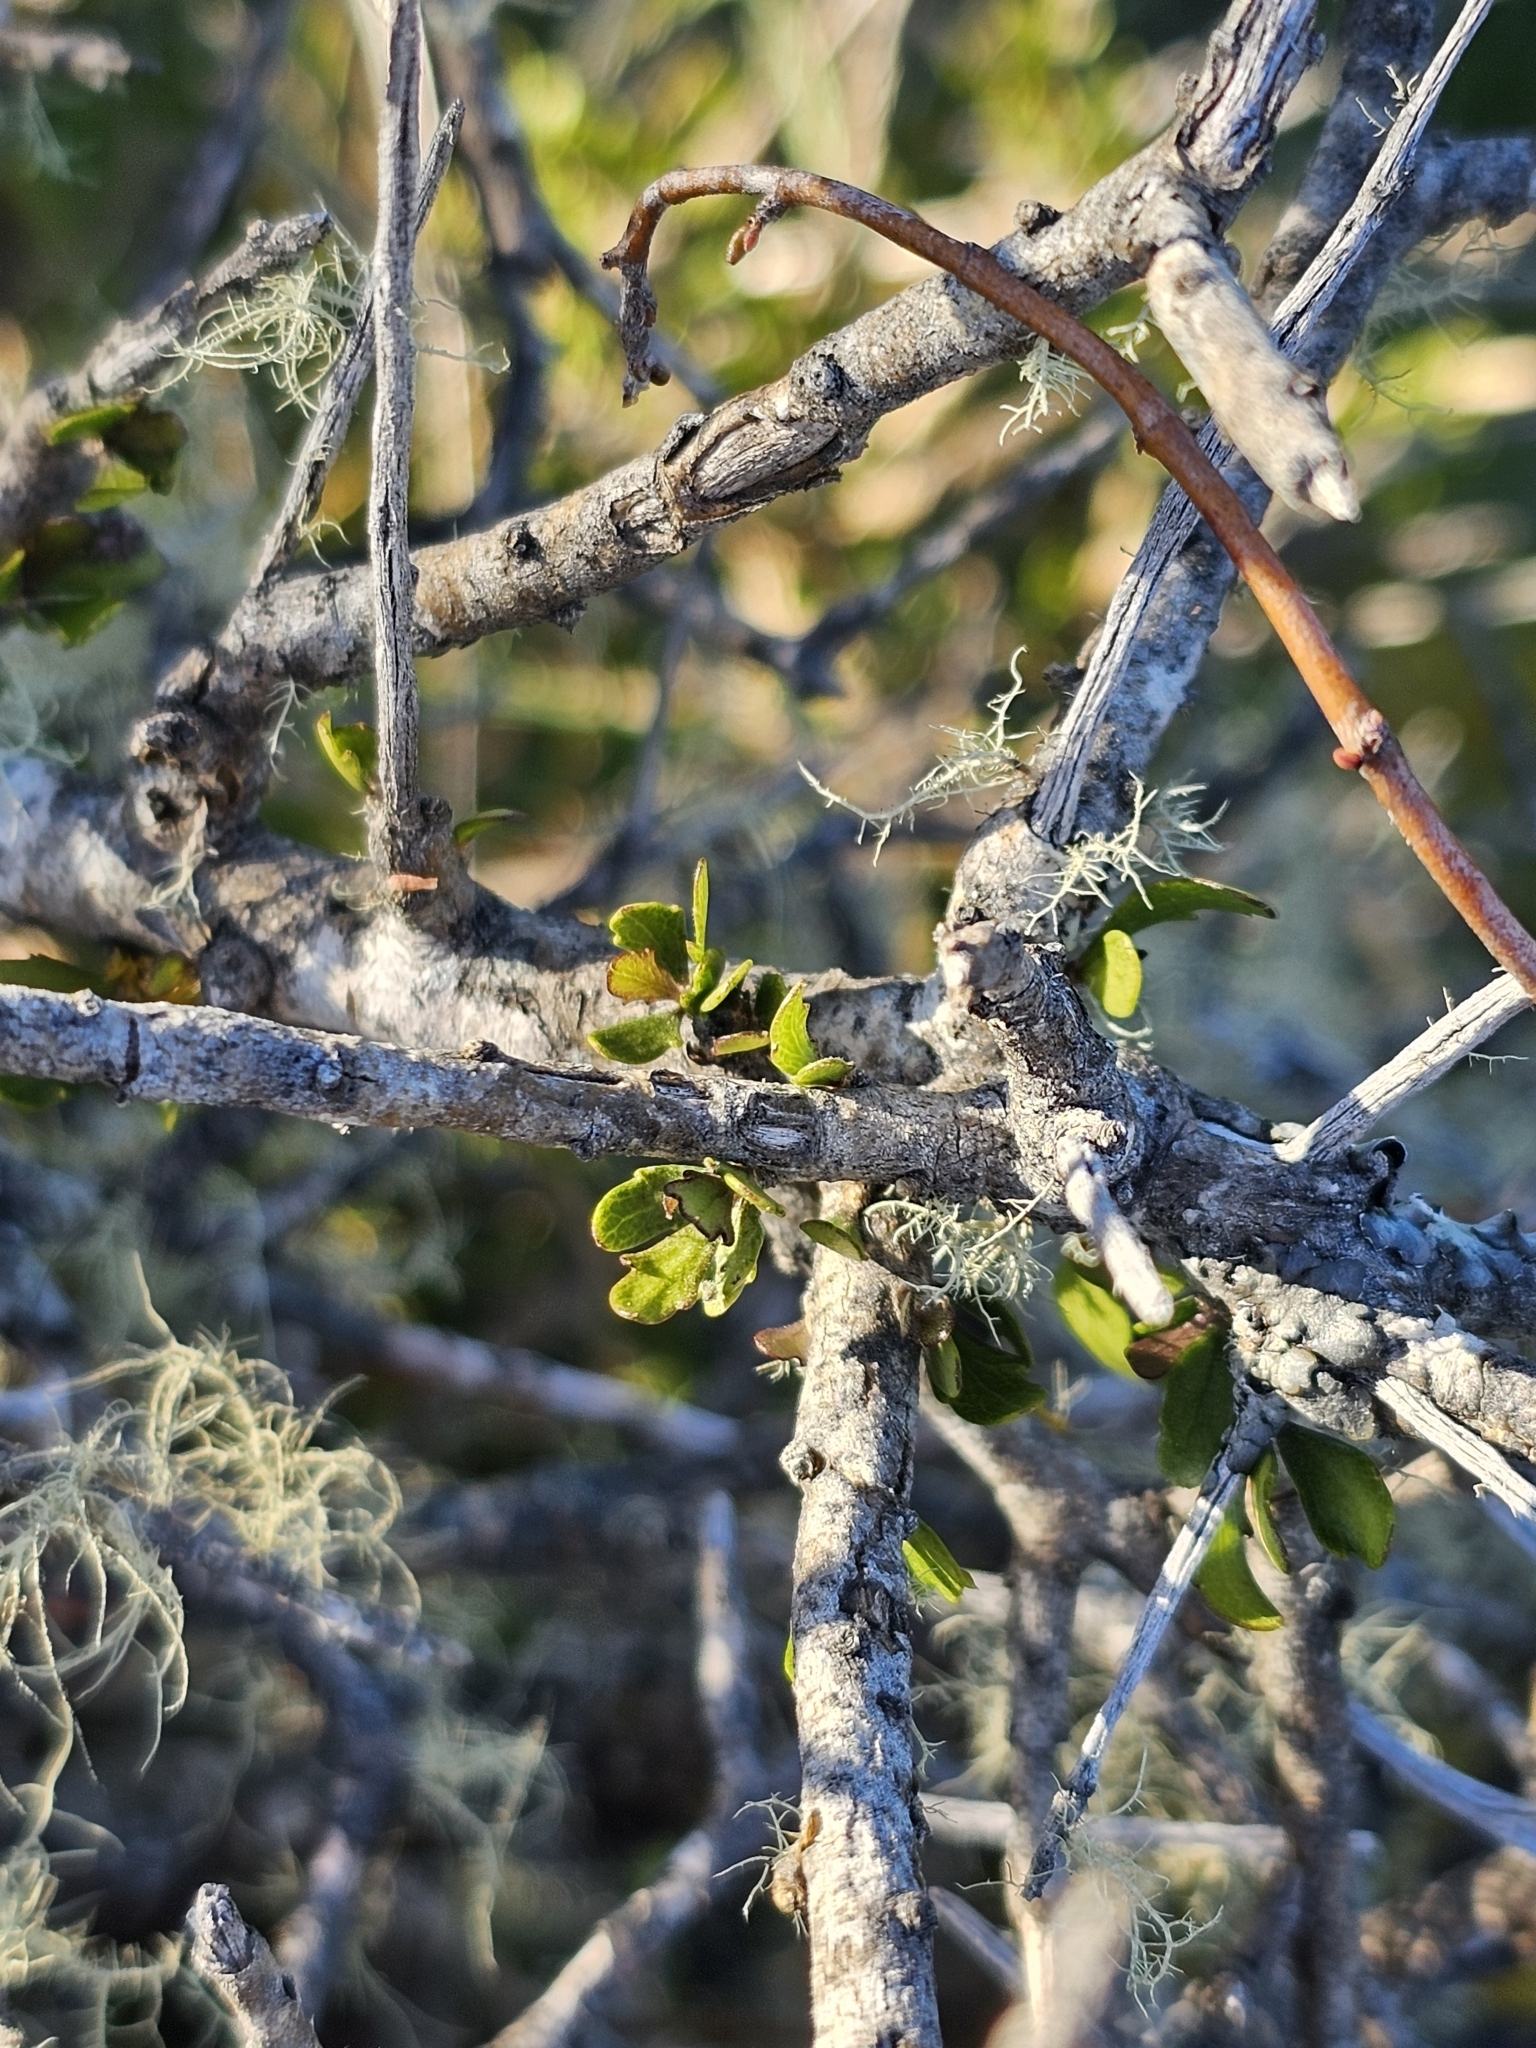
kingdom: Plantae
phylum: Tracheophyta
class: Magnoliopsida
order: Malpighiales
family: Violaceae
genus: Melicytus
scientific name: Melicytus alpinus
